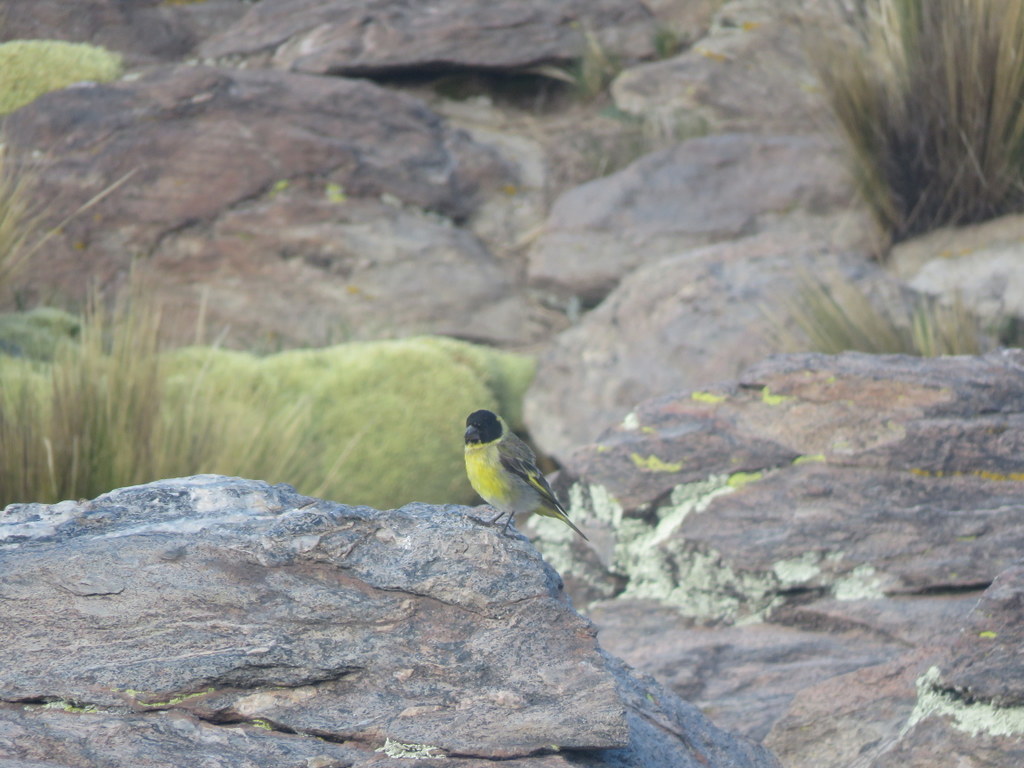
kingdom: Animalia
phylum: Chordata
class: Aves
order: Passeriformes
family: Fringillidae
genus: Spinus
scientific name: Spinus crassirostris
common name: Thick-billed siskin
